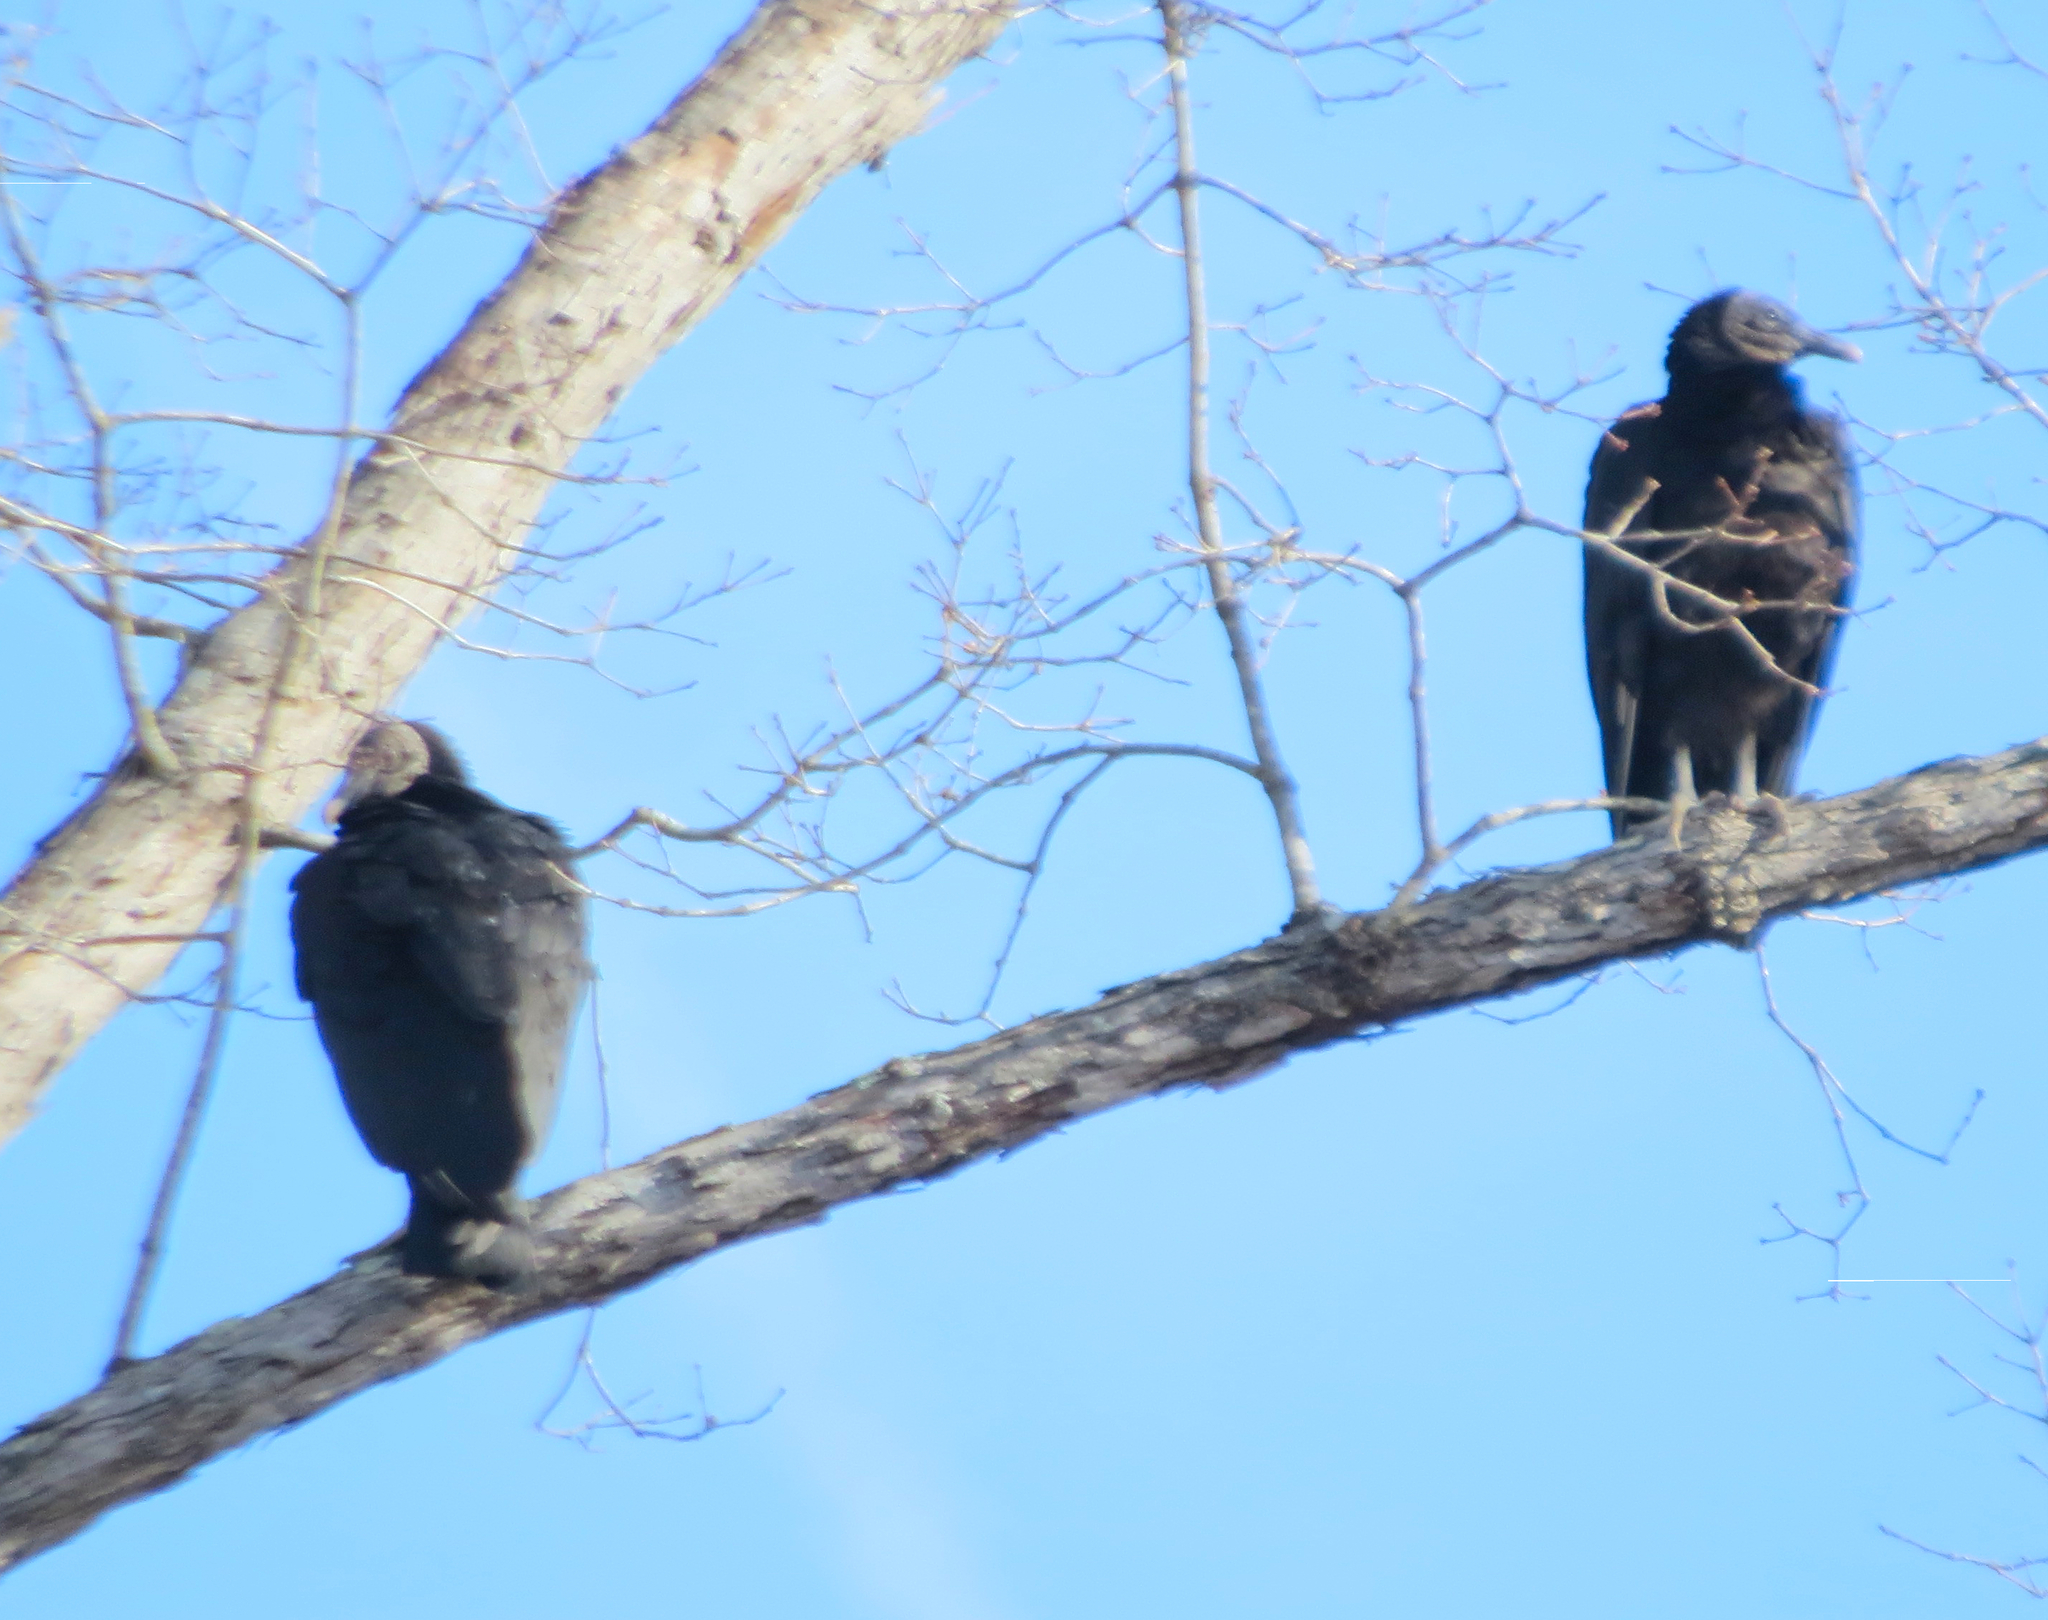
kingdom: Animalia
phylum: Chordata
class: Aves
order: Accipitriformes
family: Cathartidae
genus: Coragyps
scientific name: Coragyps atratus
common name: Black vulture
